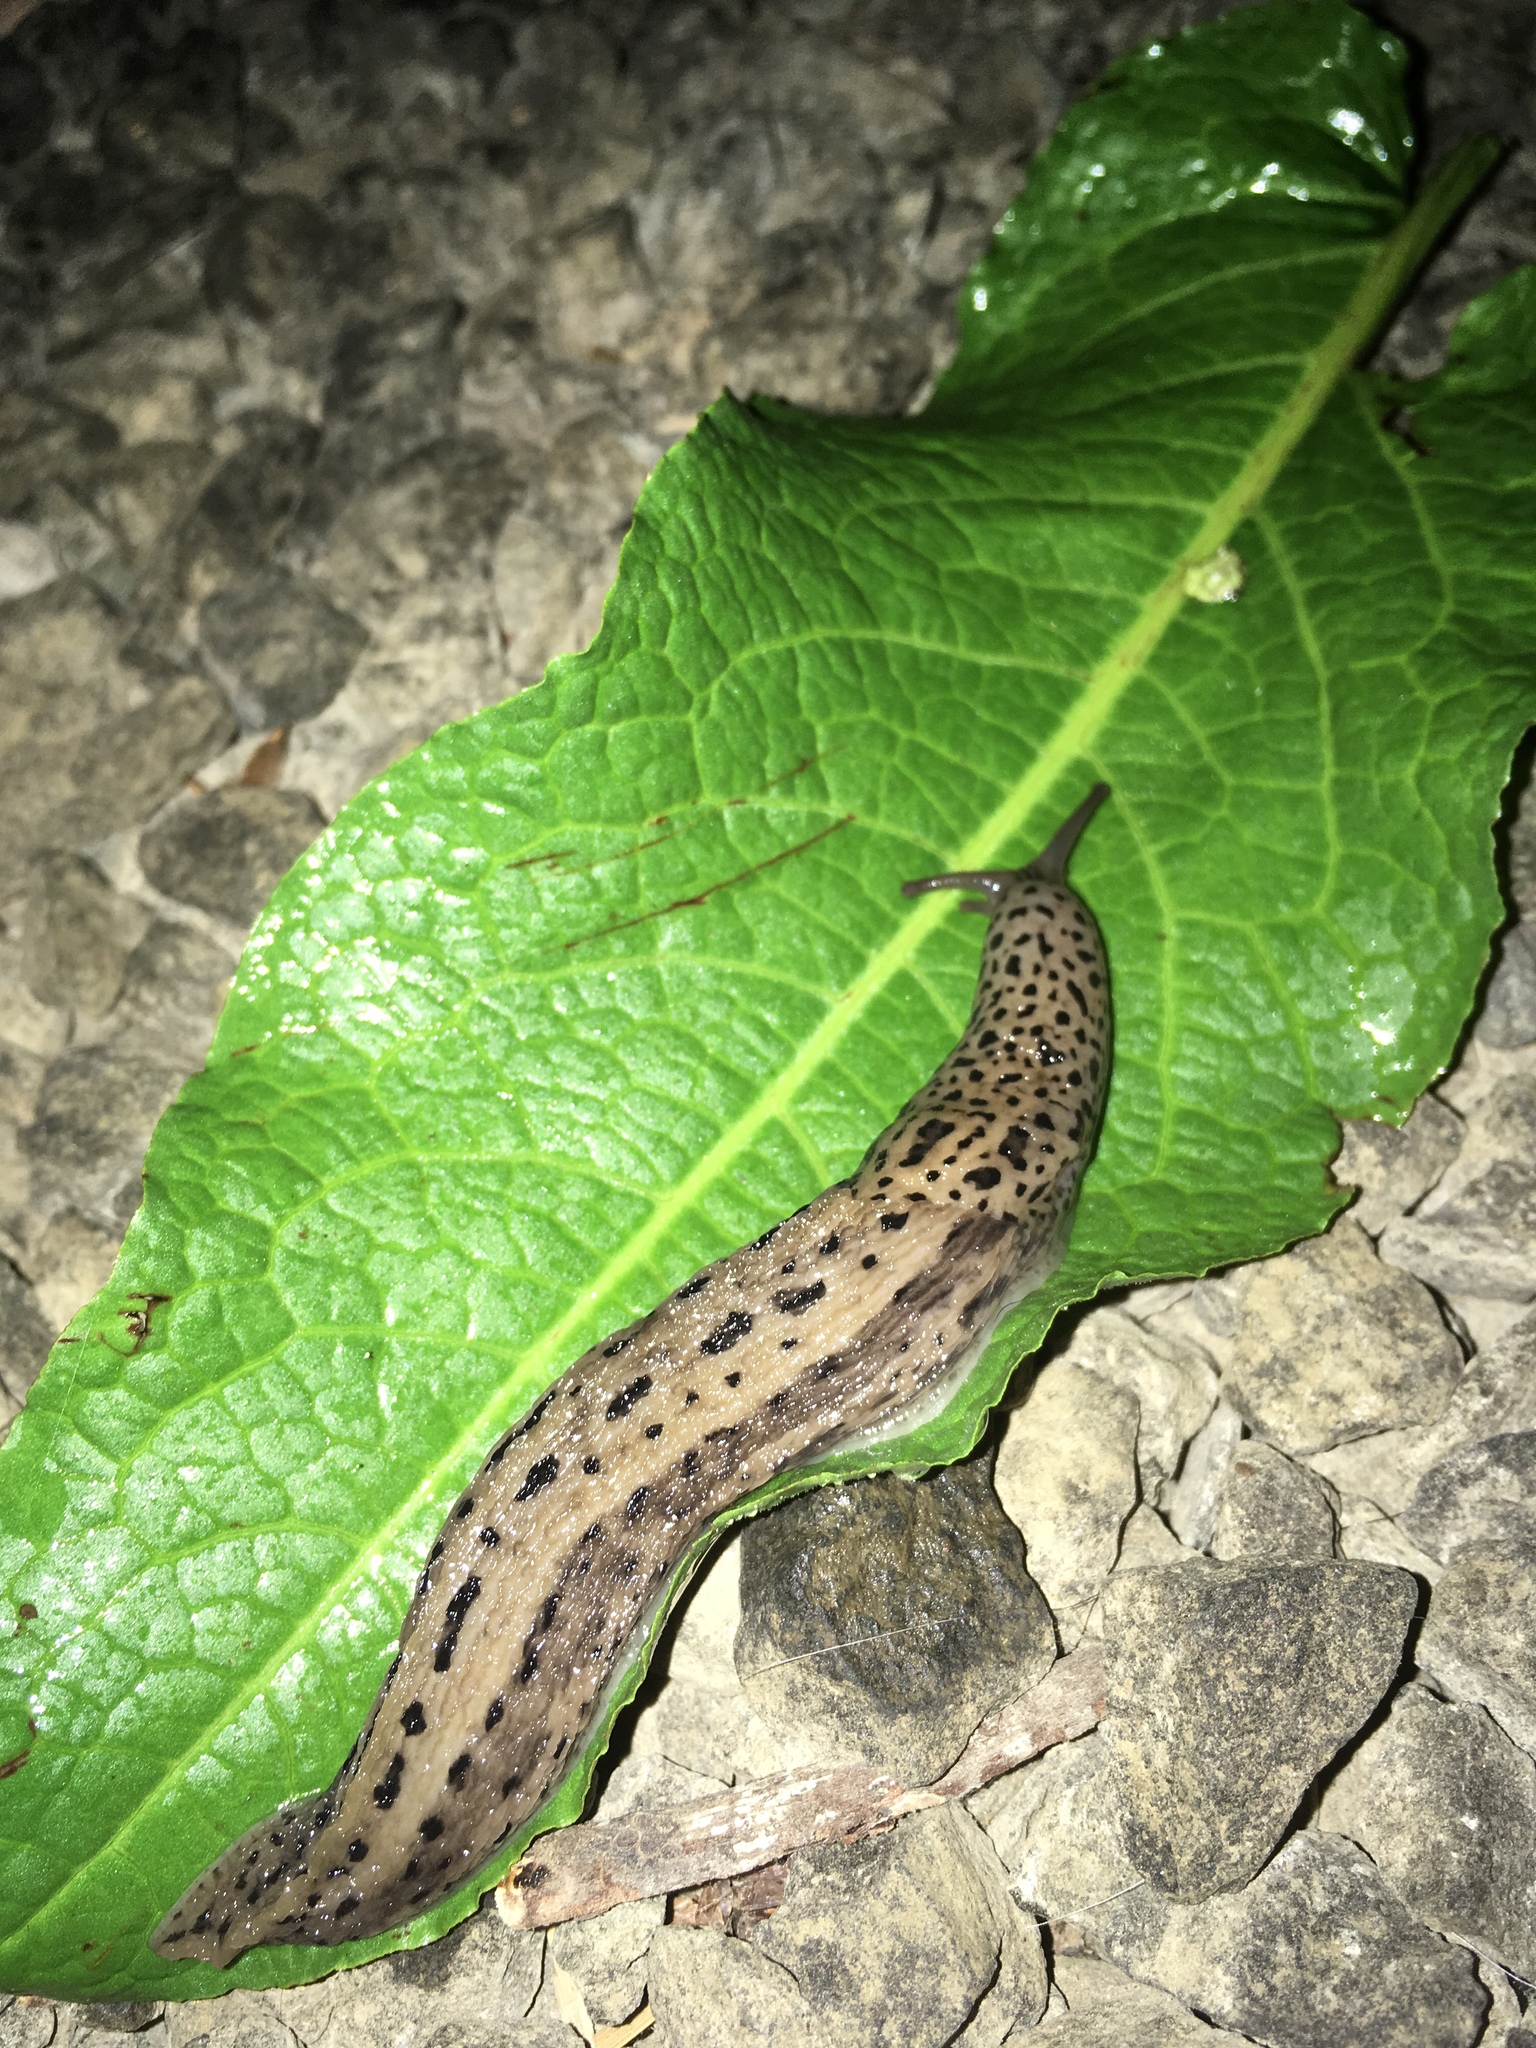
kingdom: Animalia
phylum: Mollusca
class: Gastropoda
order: Stylommatophora
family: Limacidae
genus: Limax
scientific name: Limax maximus
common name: Great grey slug
